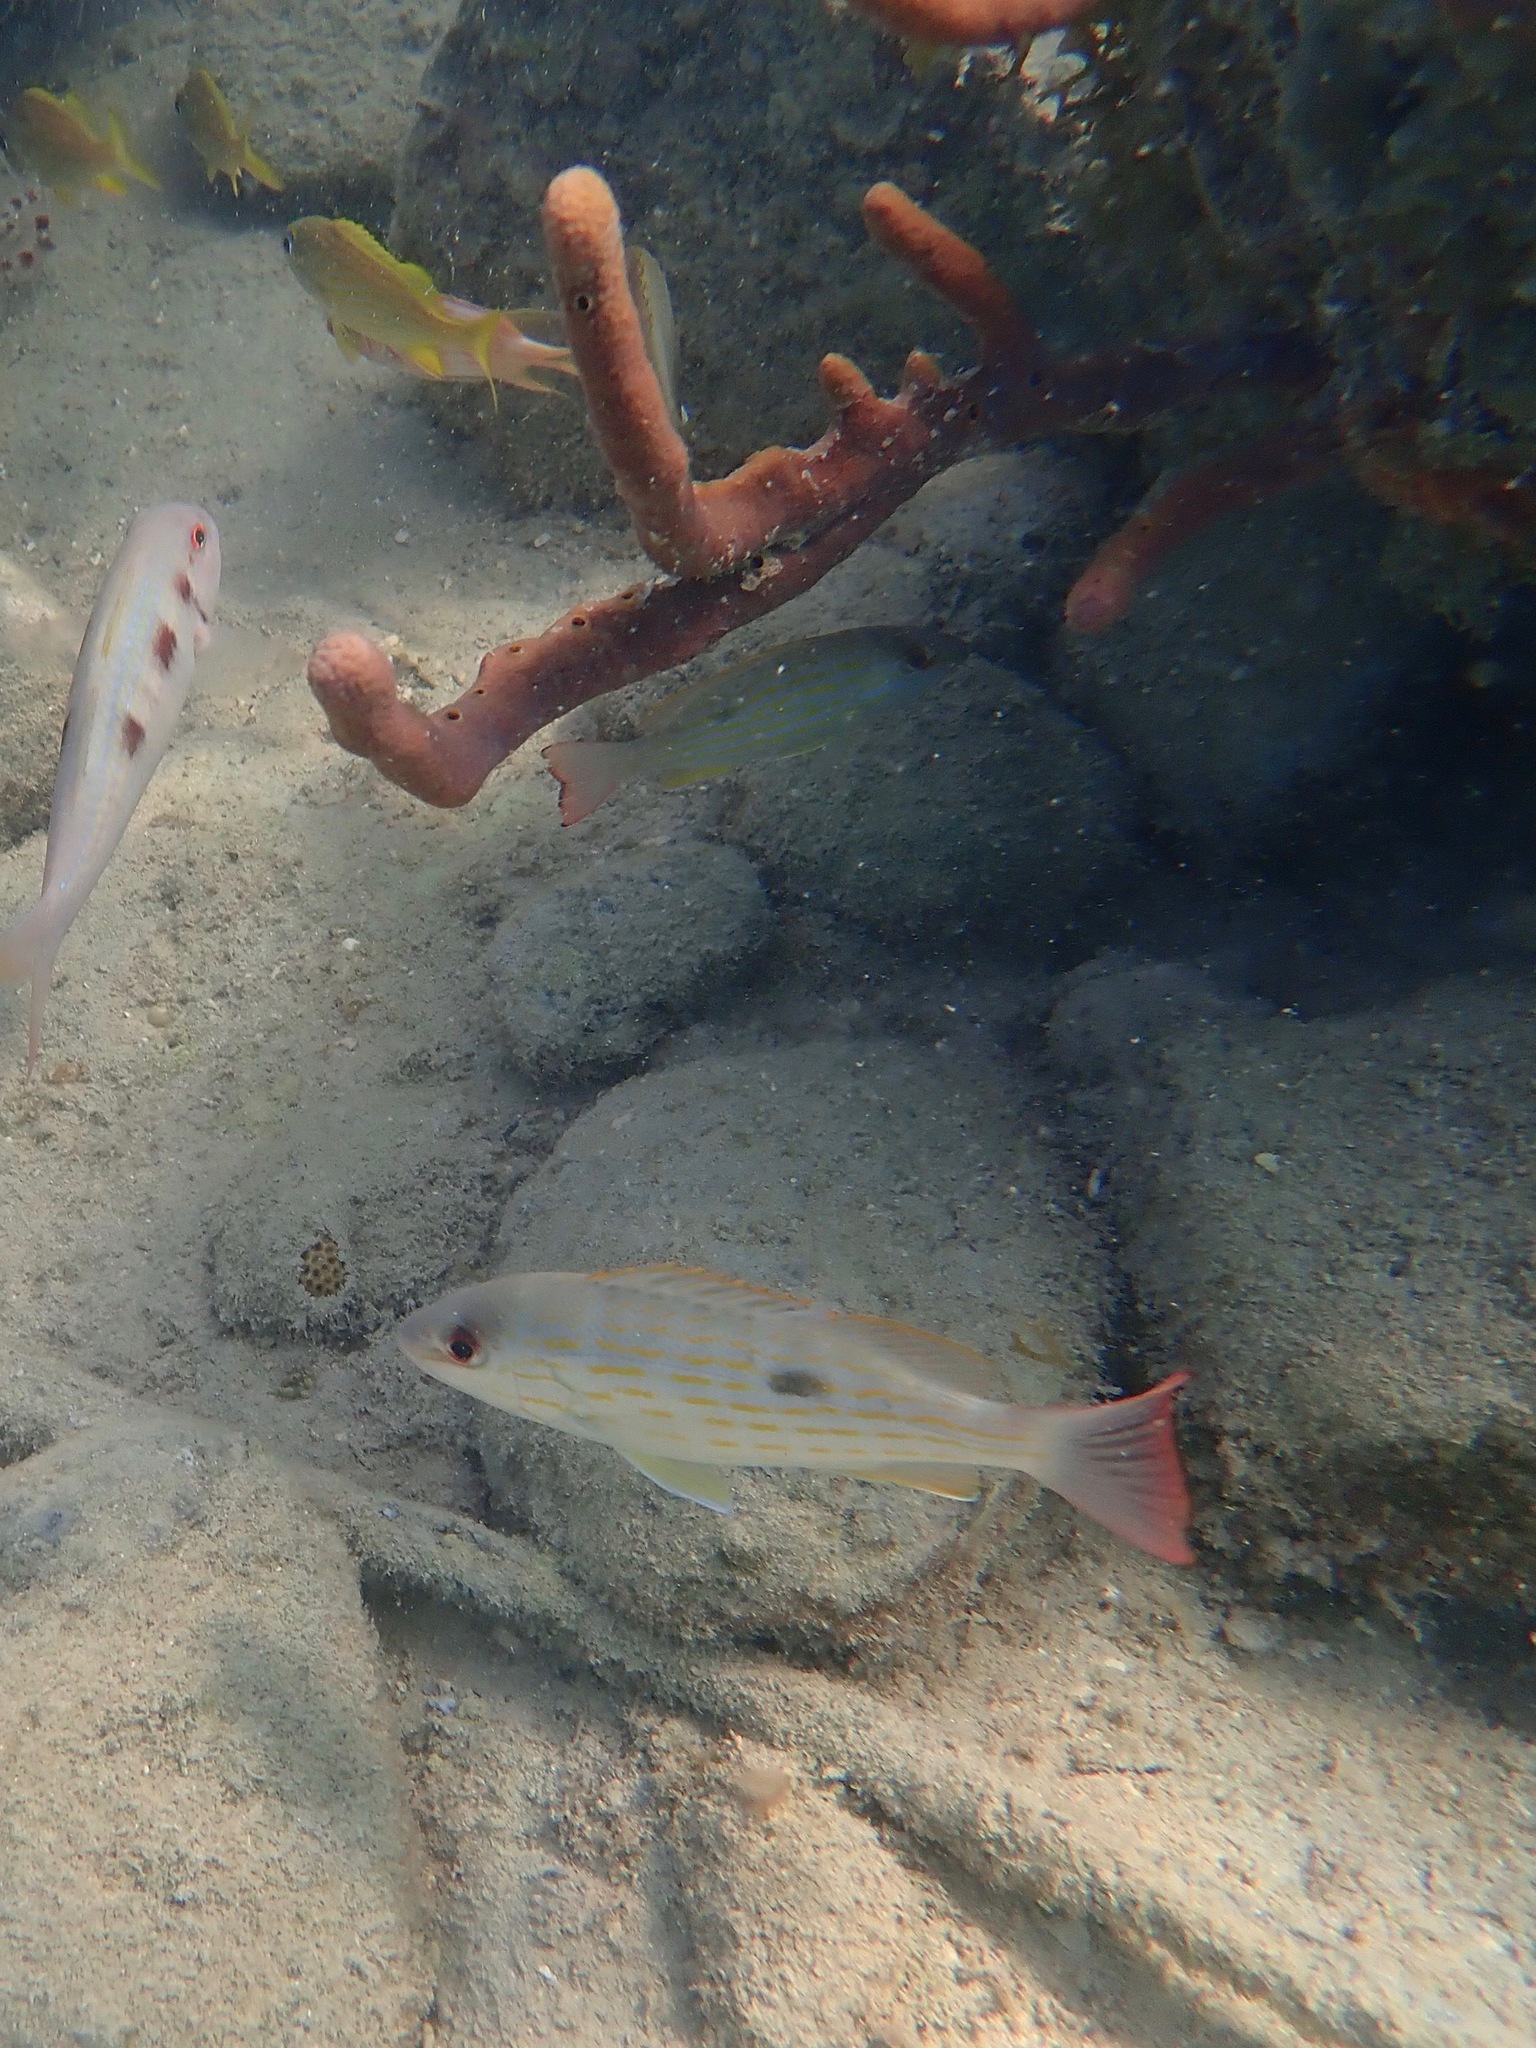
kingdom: Animalia
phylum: Chordata
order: Perciformes
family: Lutjanidae
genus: Lutjanus
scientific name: Lutjanus synagris
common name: Lane snapper
